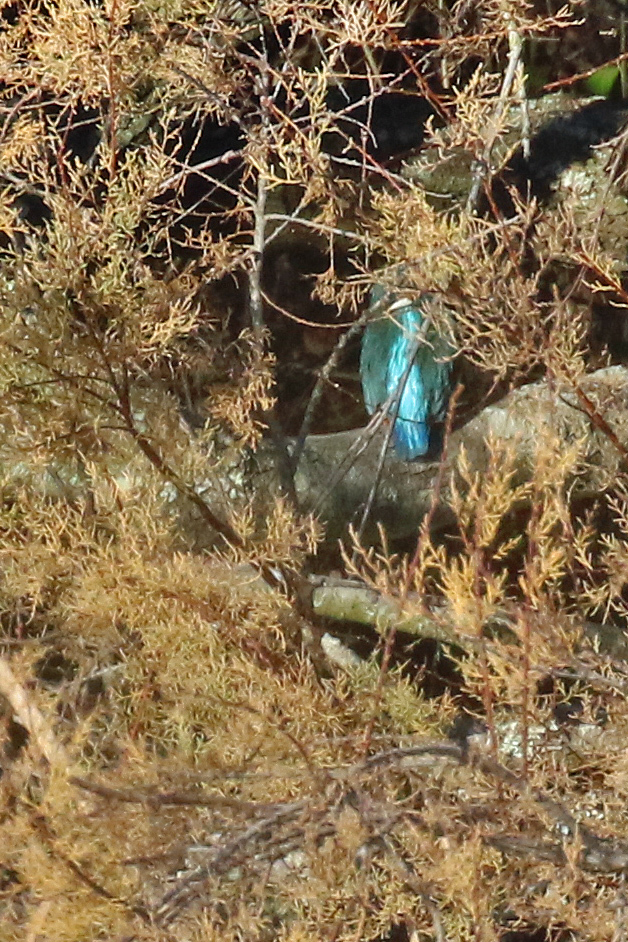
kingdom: Animalia
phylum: Chordata
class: Aves
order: Coraciiformes
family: Alcedinidae
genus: Alcedo
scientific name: Alcedo atthis
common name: Common kingfisher
